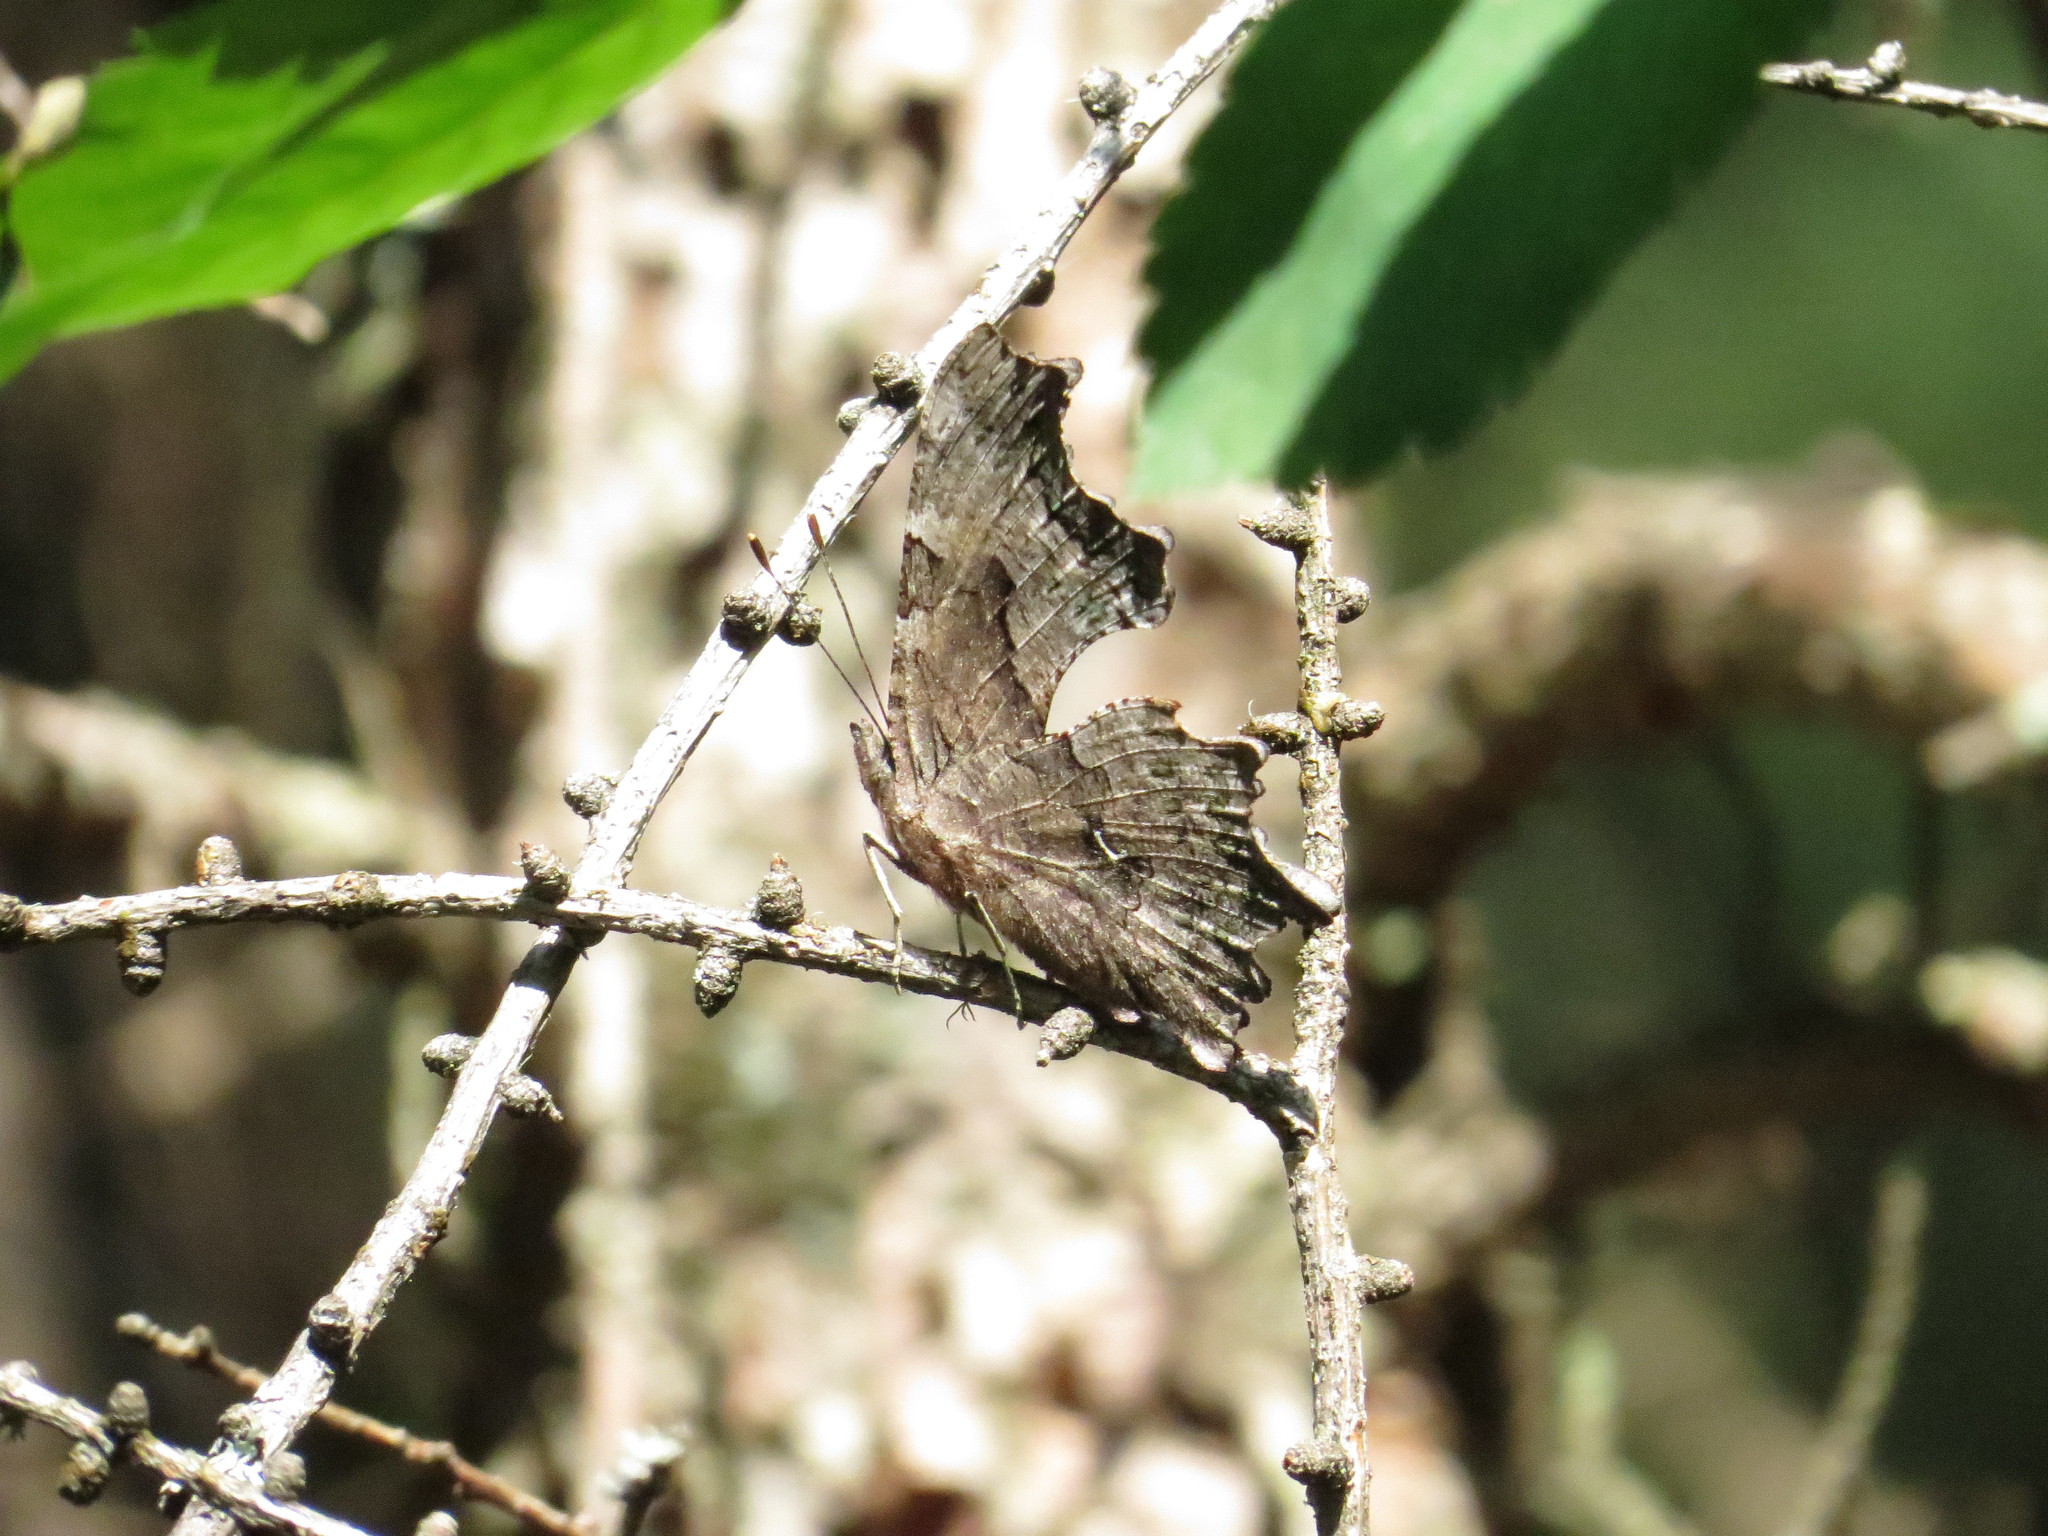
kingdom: Animalia
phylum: Arthropoda
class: Insecta
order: Lepidoptera
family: Nymphalidae
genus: Polygonia
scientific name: Polygonia faunus
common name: Green comma
